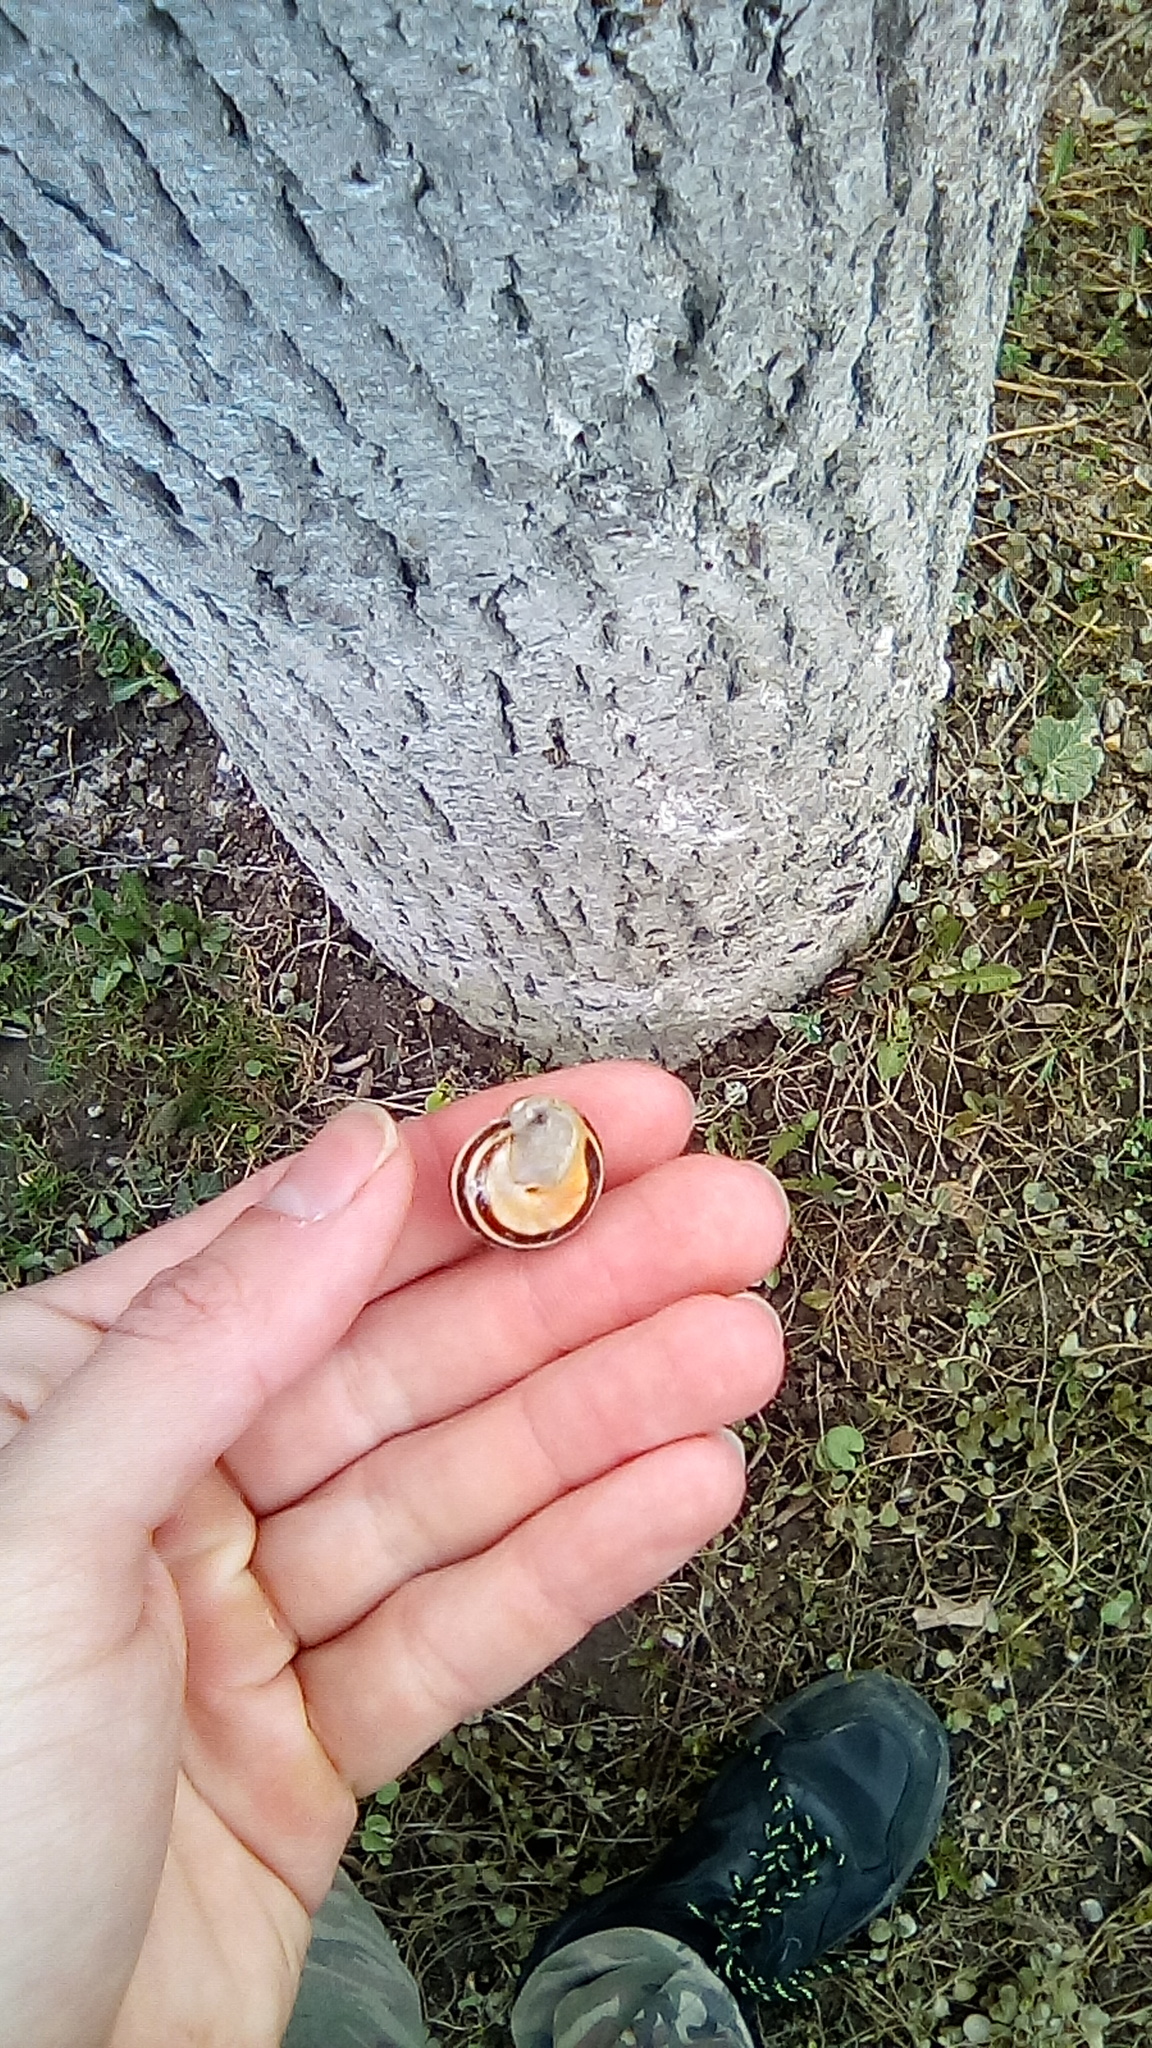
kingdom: Animalia
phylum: Mollusca
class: Gastropoda
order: Stylommatophora
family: Helicidae
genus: Cepaea
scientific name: Cepaea nemoralis
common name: Grovesnail
